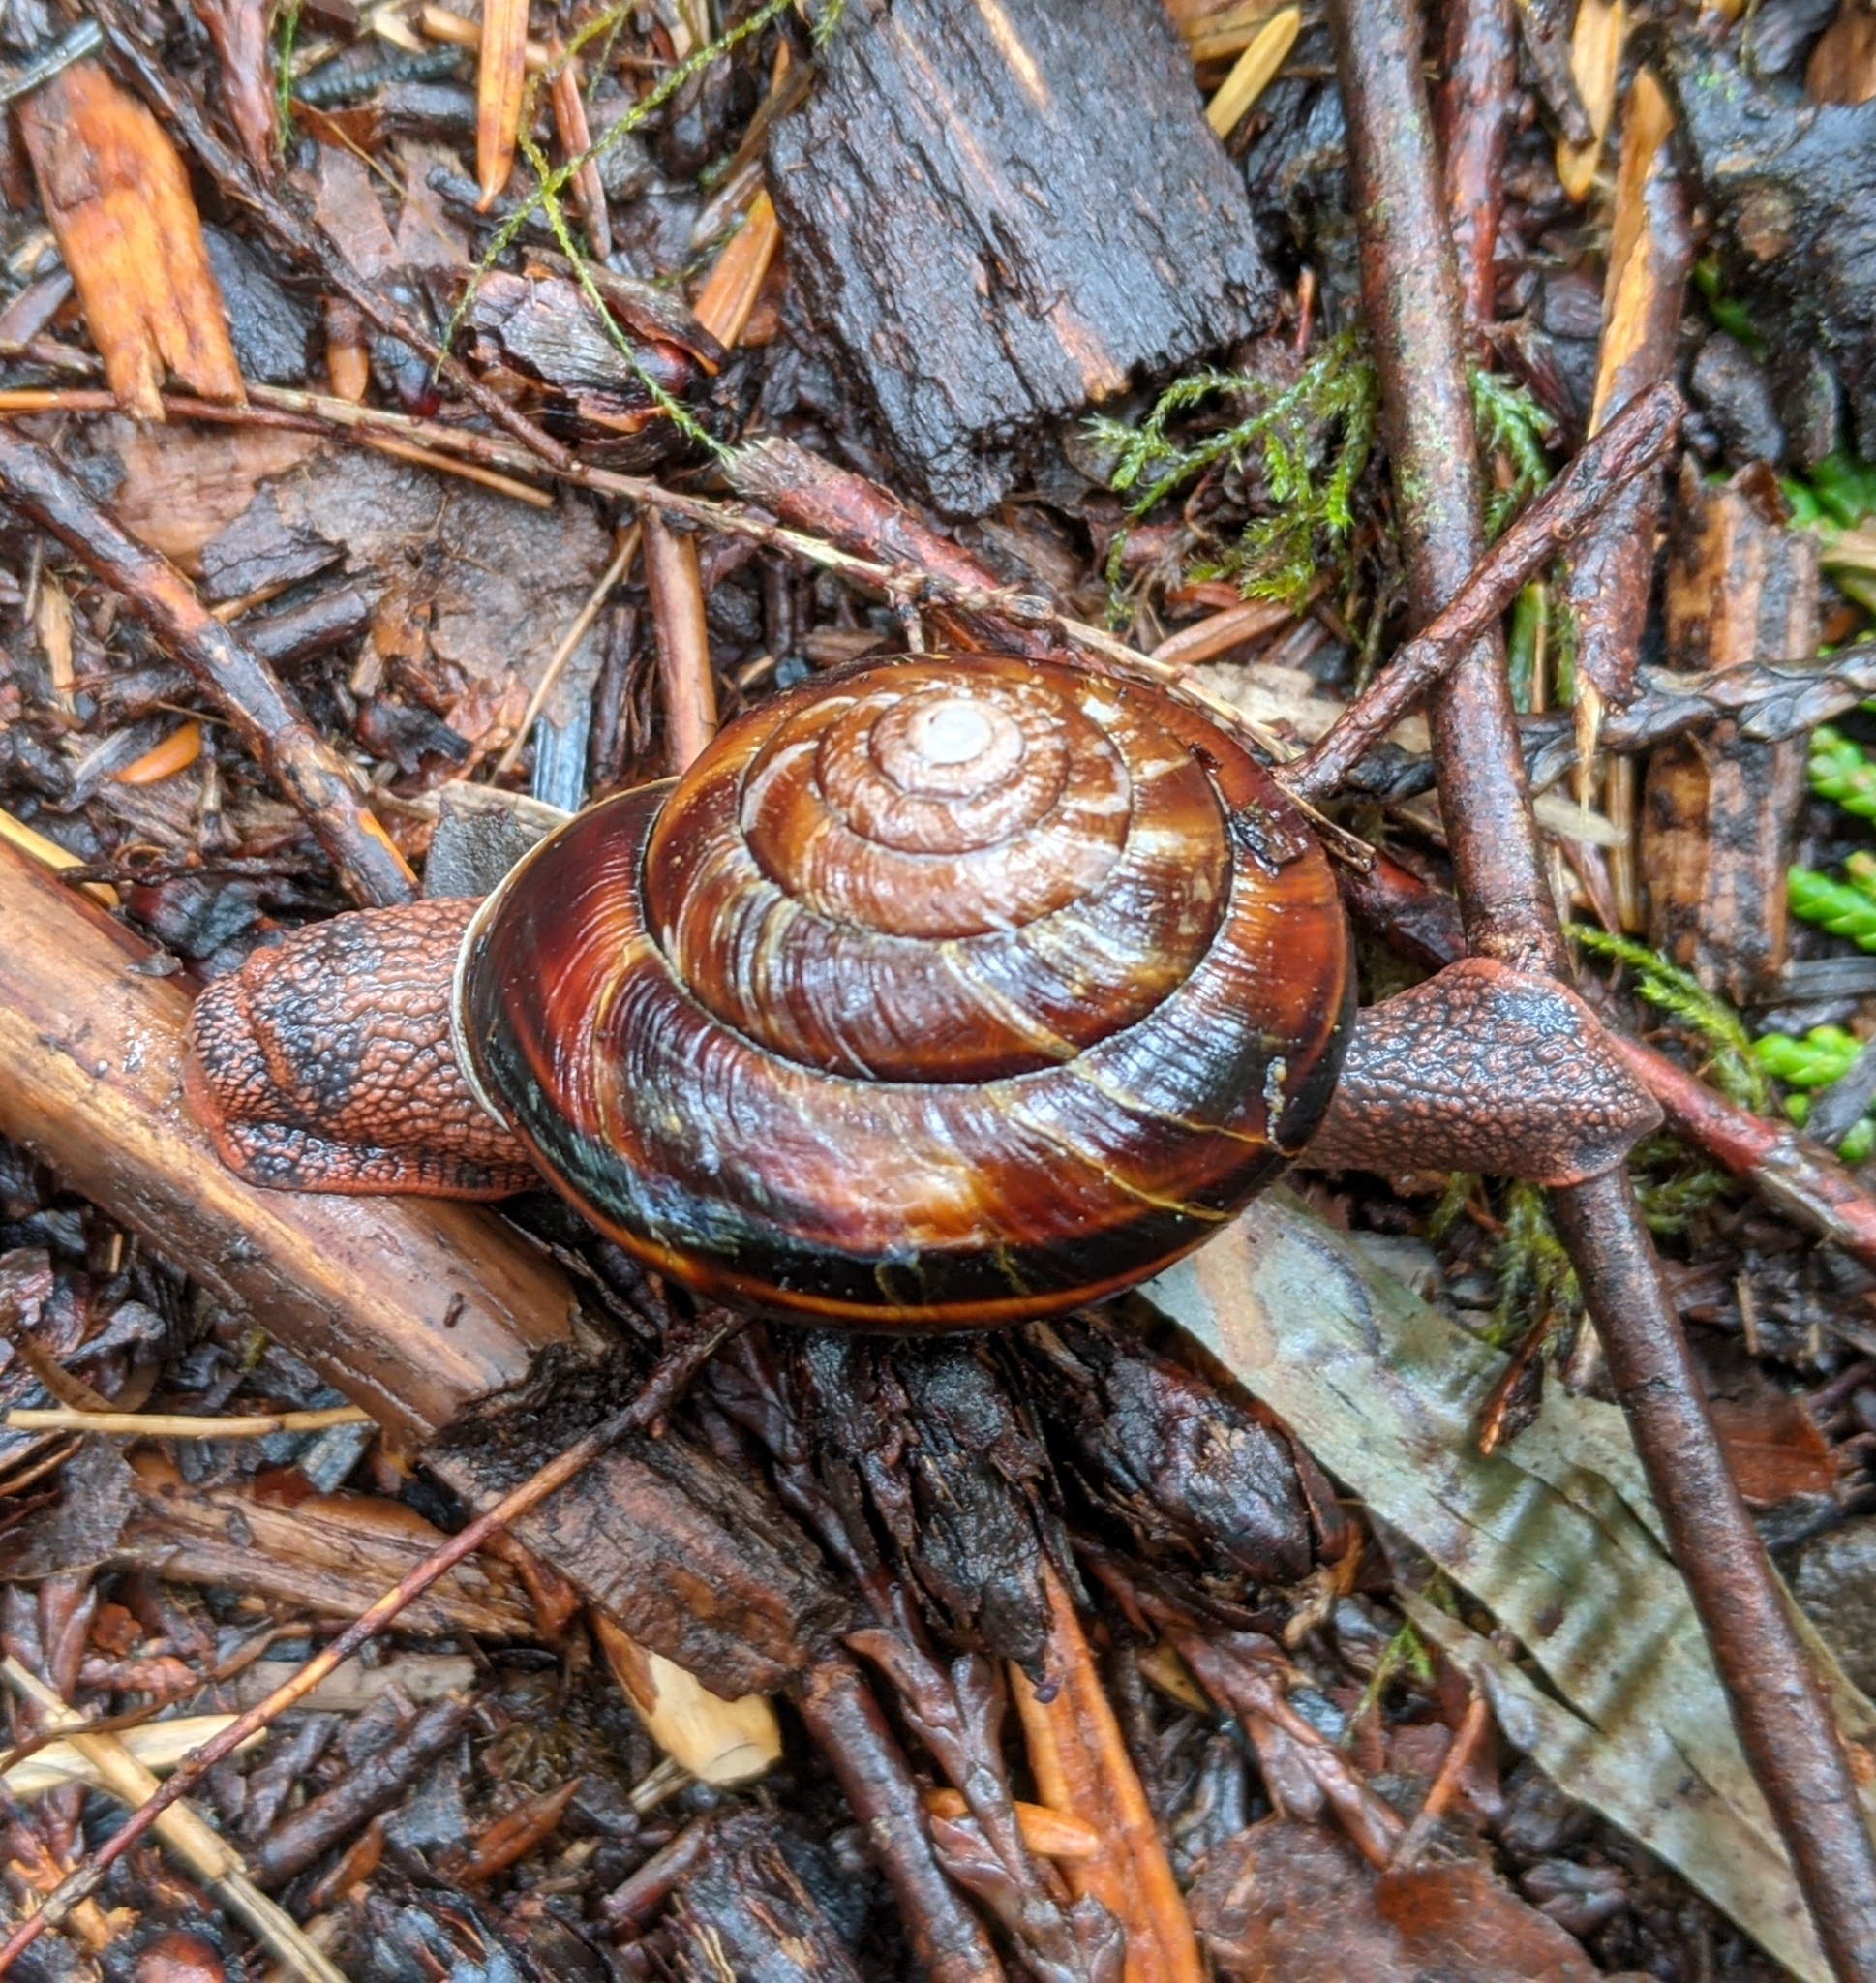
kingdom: Animalia
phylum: Mollusca
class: Gastropoda
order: Stylommatophora
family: Xanthonychidae
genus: Monadenia
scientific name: Monadenia fidelis
